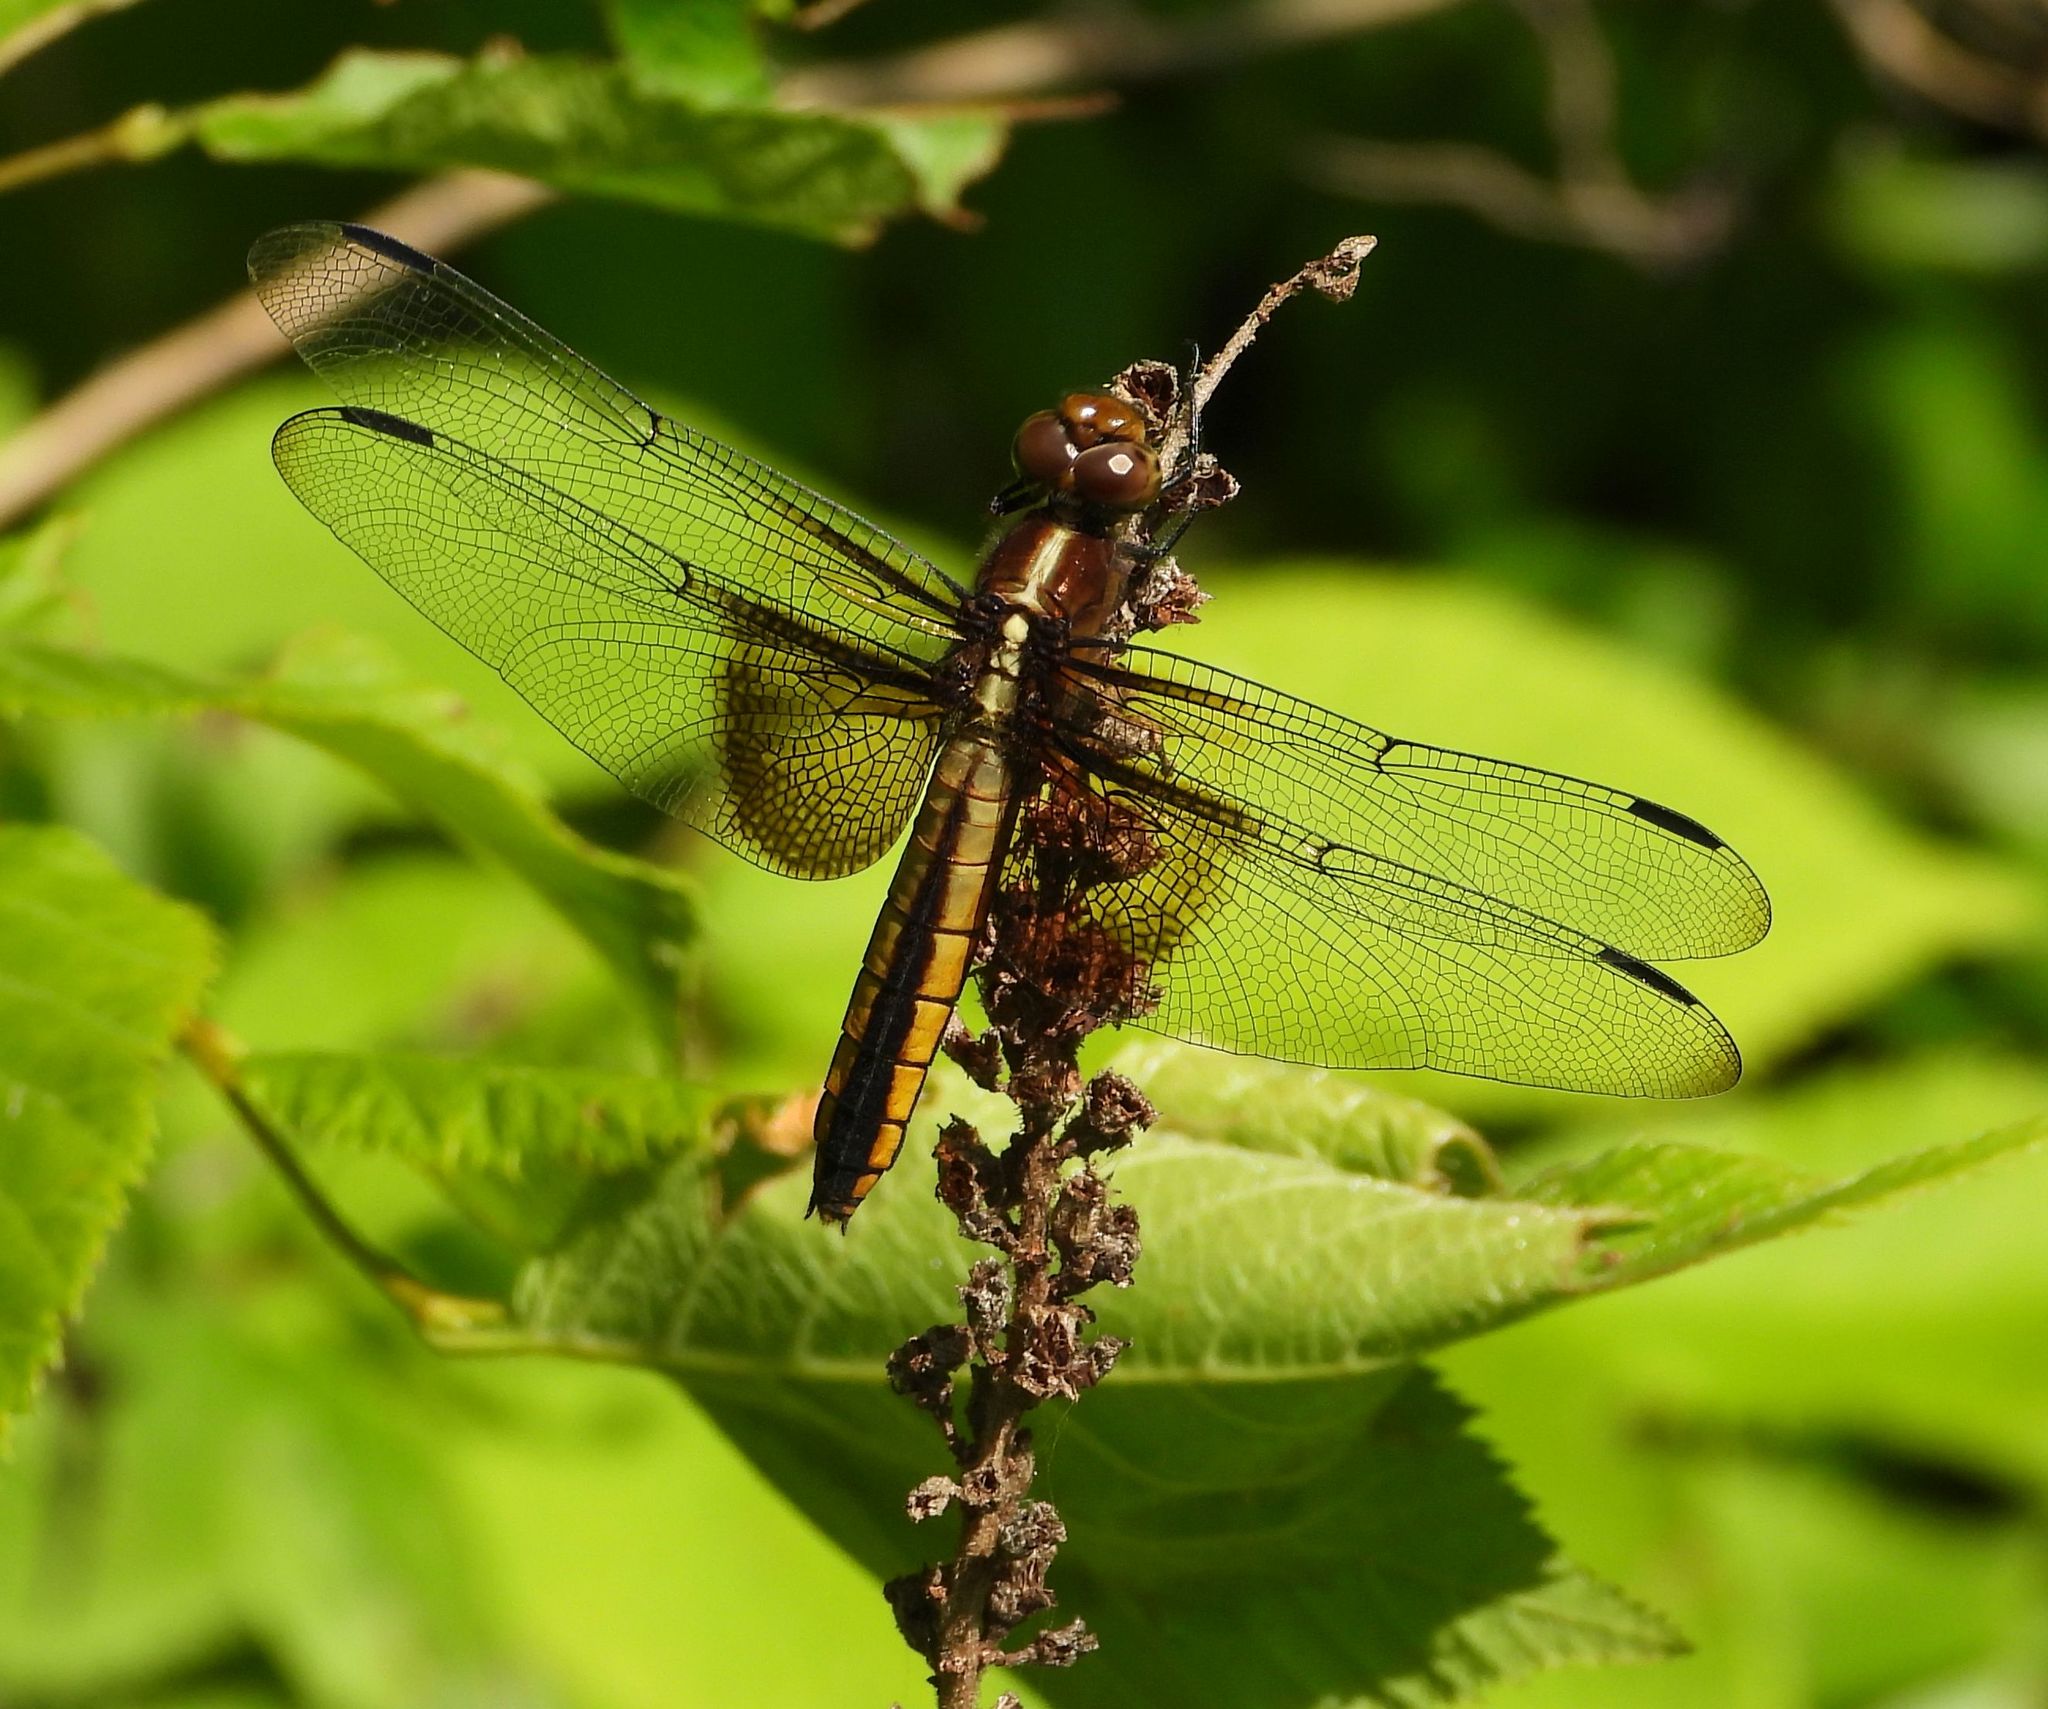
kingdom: Animalia
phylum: Arthropoda
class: Insecta
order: Odonata
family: Libellulidae
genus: Libellula
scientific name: Libellula luctuosa
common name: Widow skimmer
